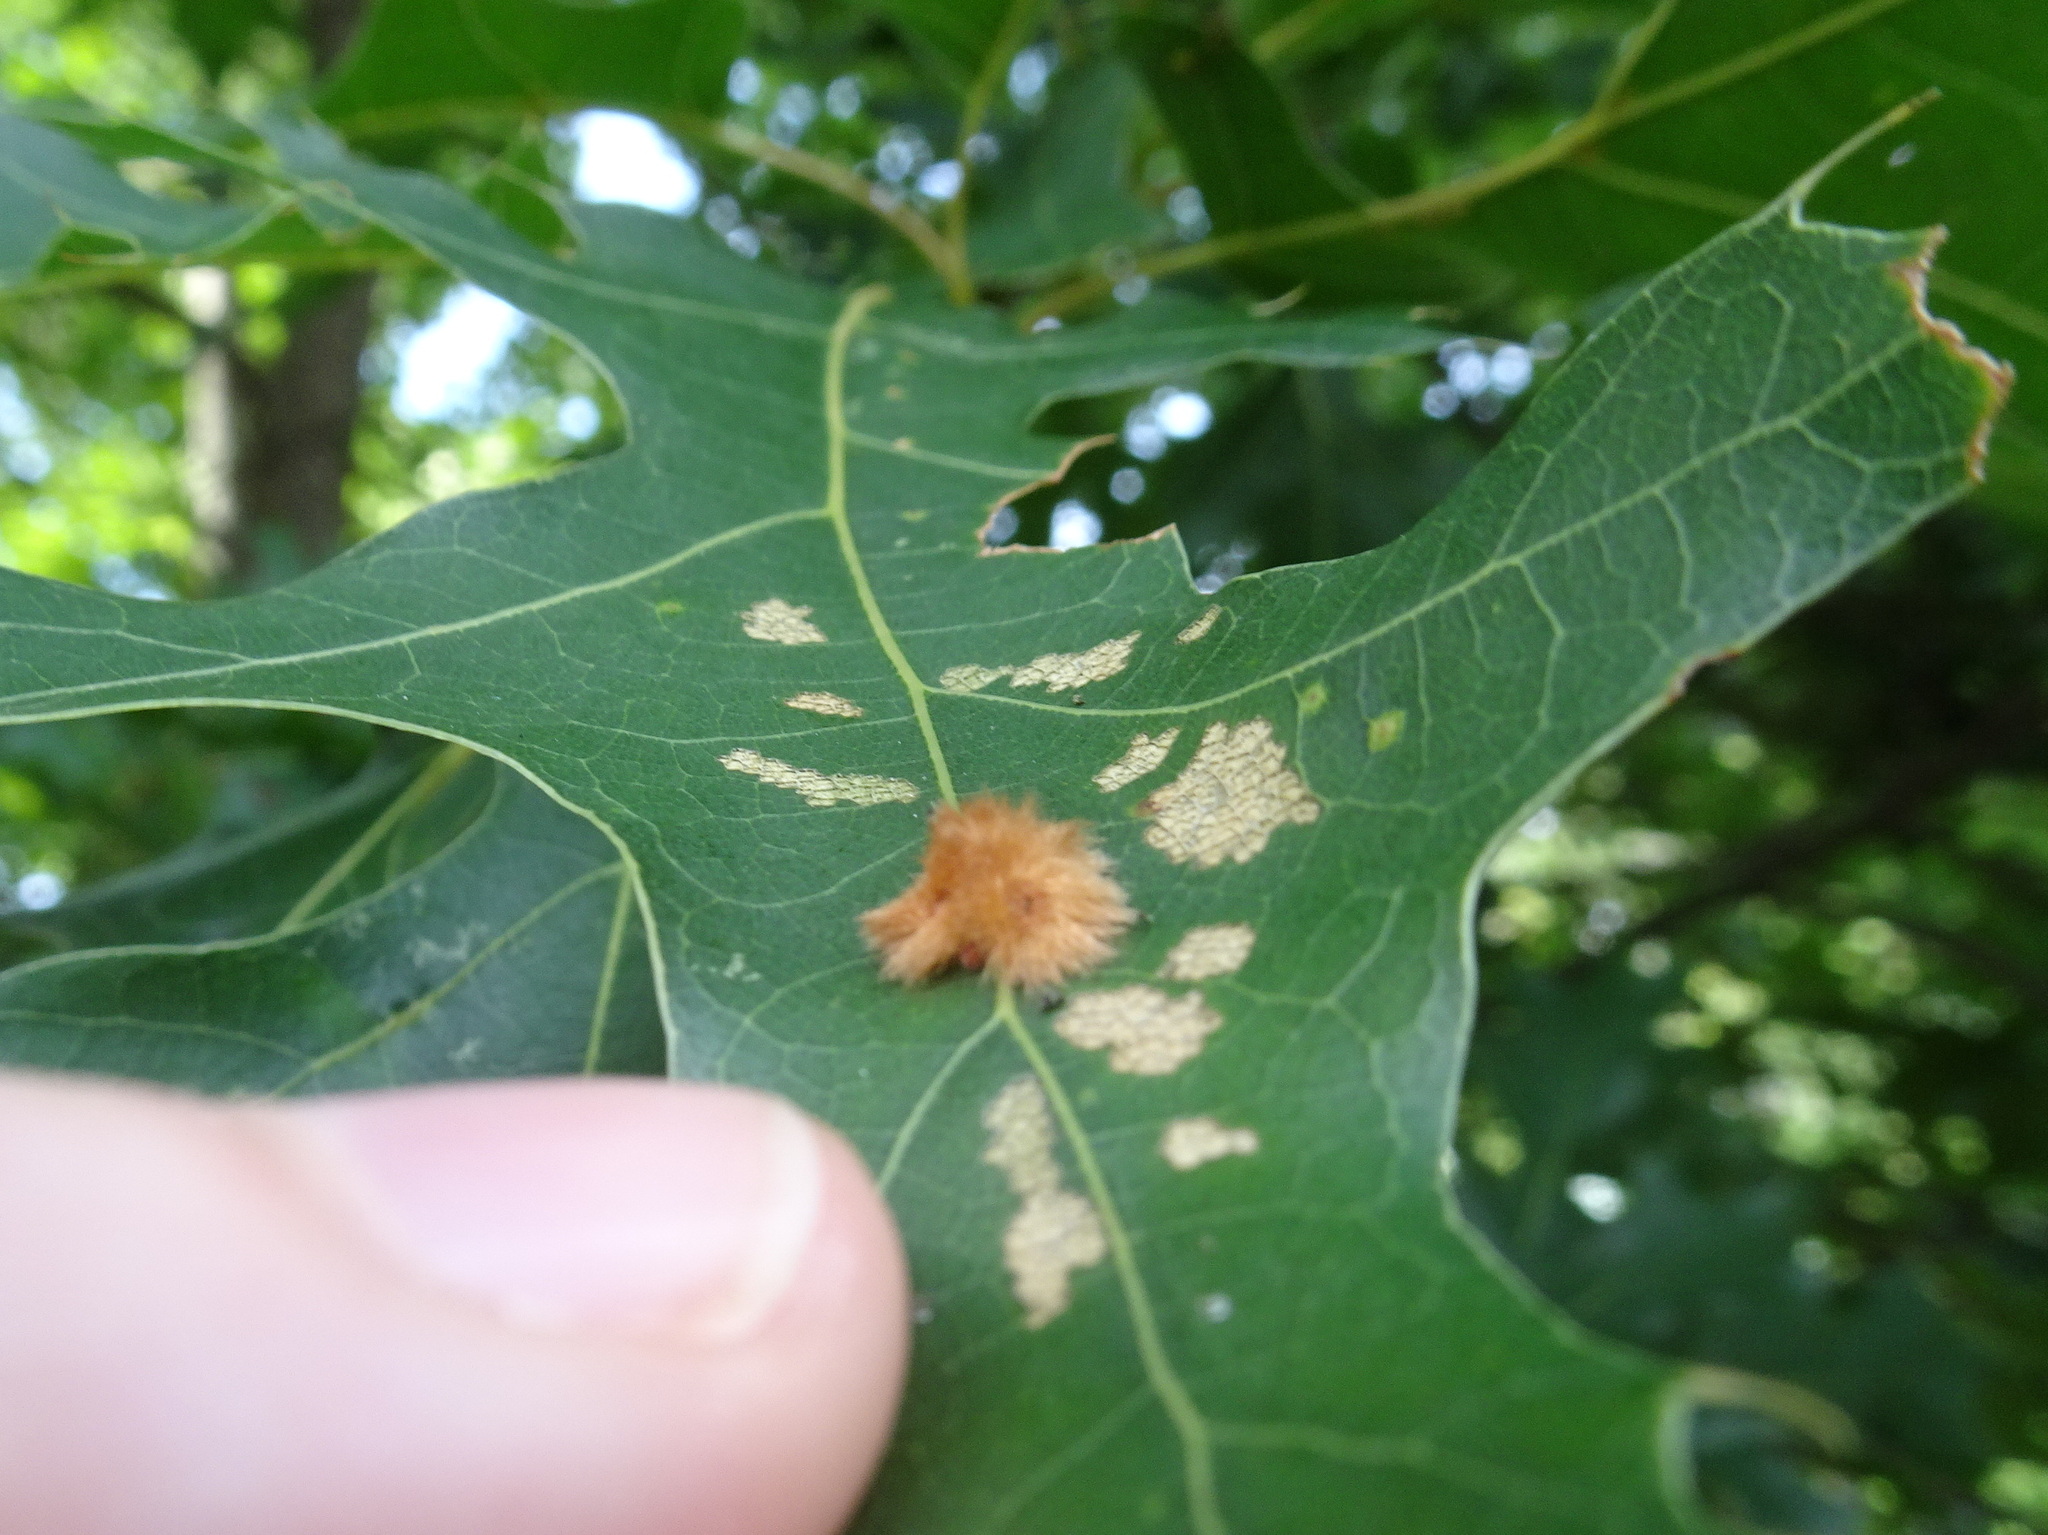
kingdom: Animalia
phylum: Arthropoda
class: Insecta
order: Hymenoptera
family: Cynipidae
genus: Callirhytis
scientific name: Callirhytis
